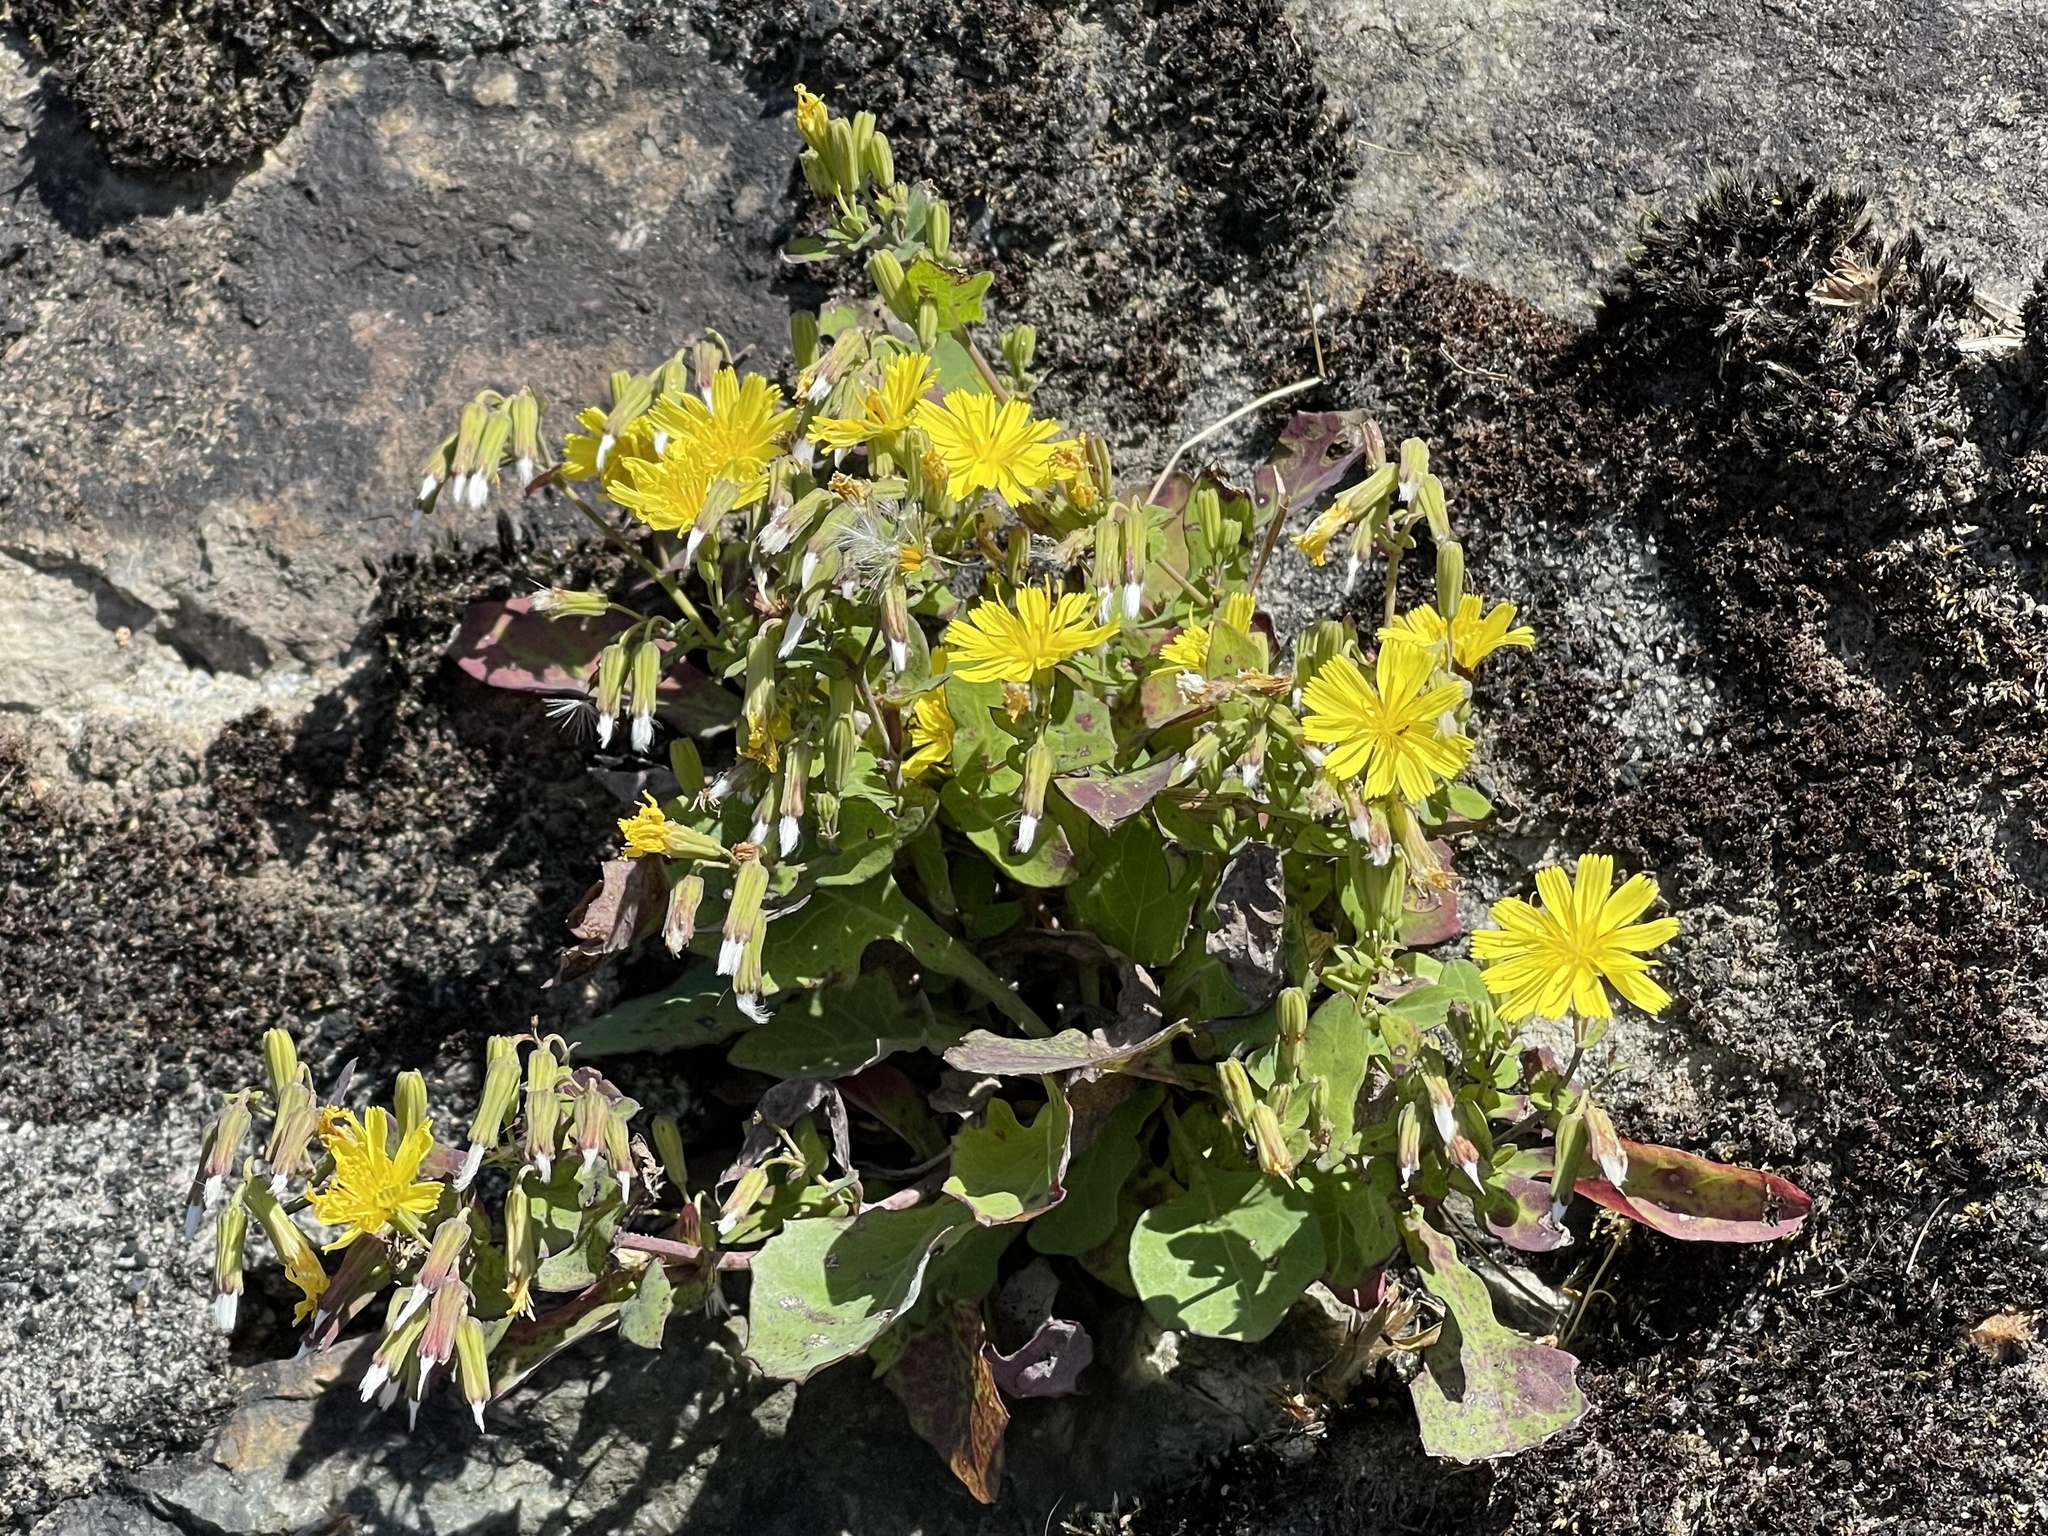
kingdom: Plantae
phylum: Tracheophyta
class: Magnoliopsida
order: Asterales
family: Asteraceae
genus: Crepidiastrum
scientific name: Crepidiastrum denticulatum
